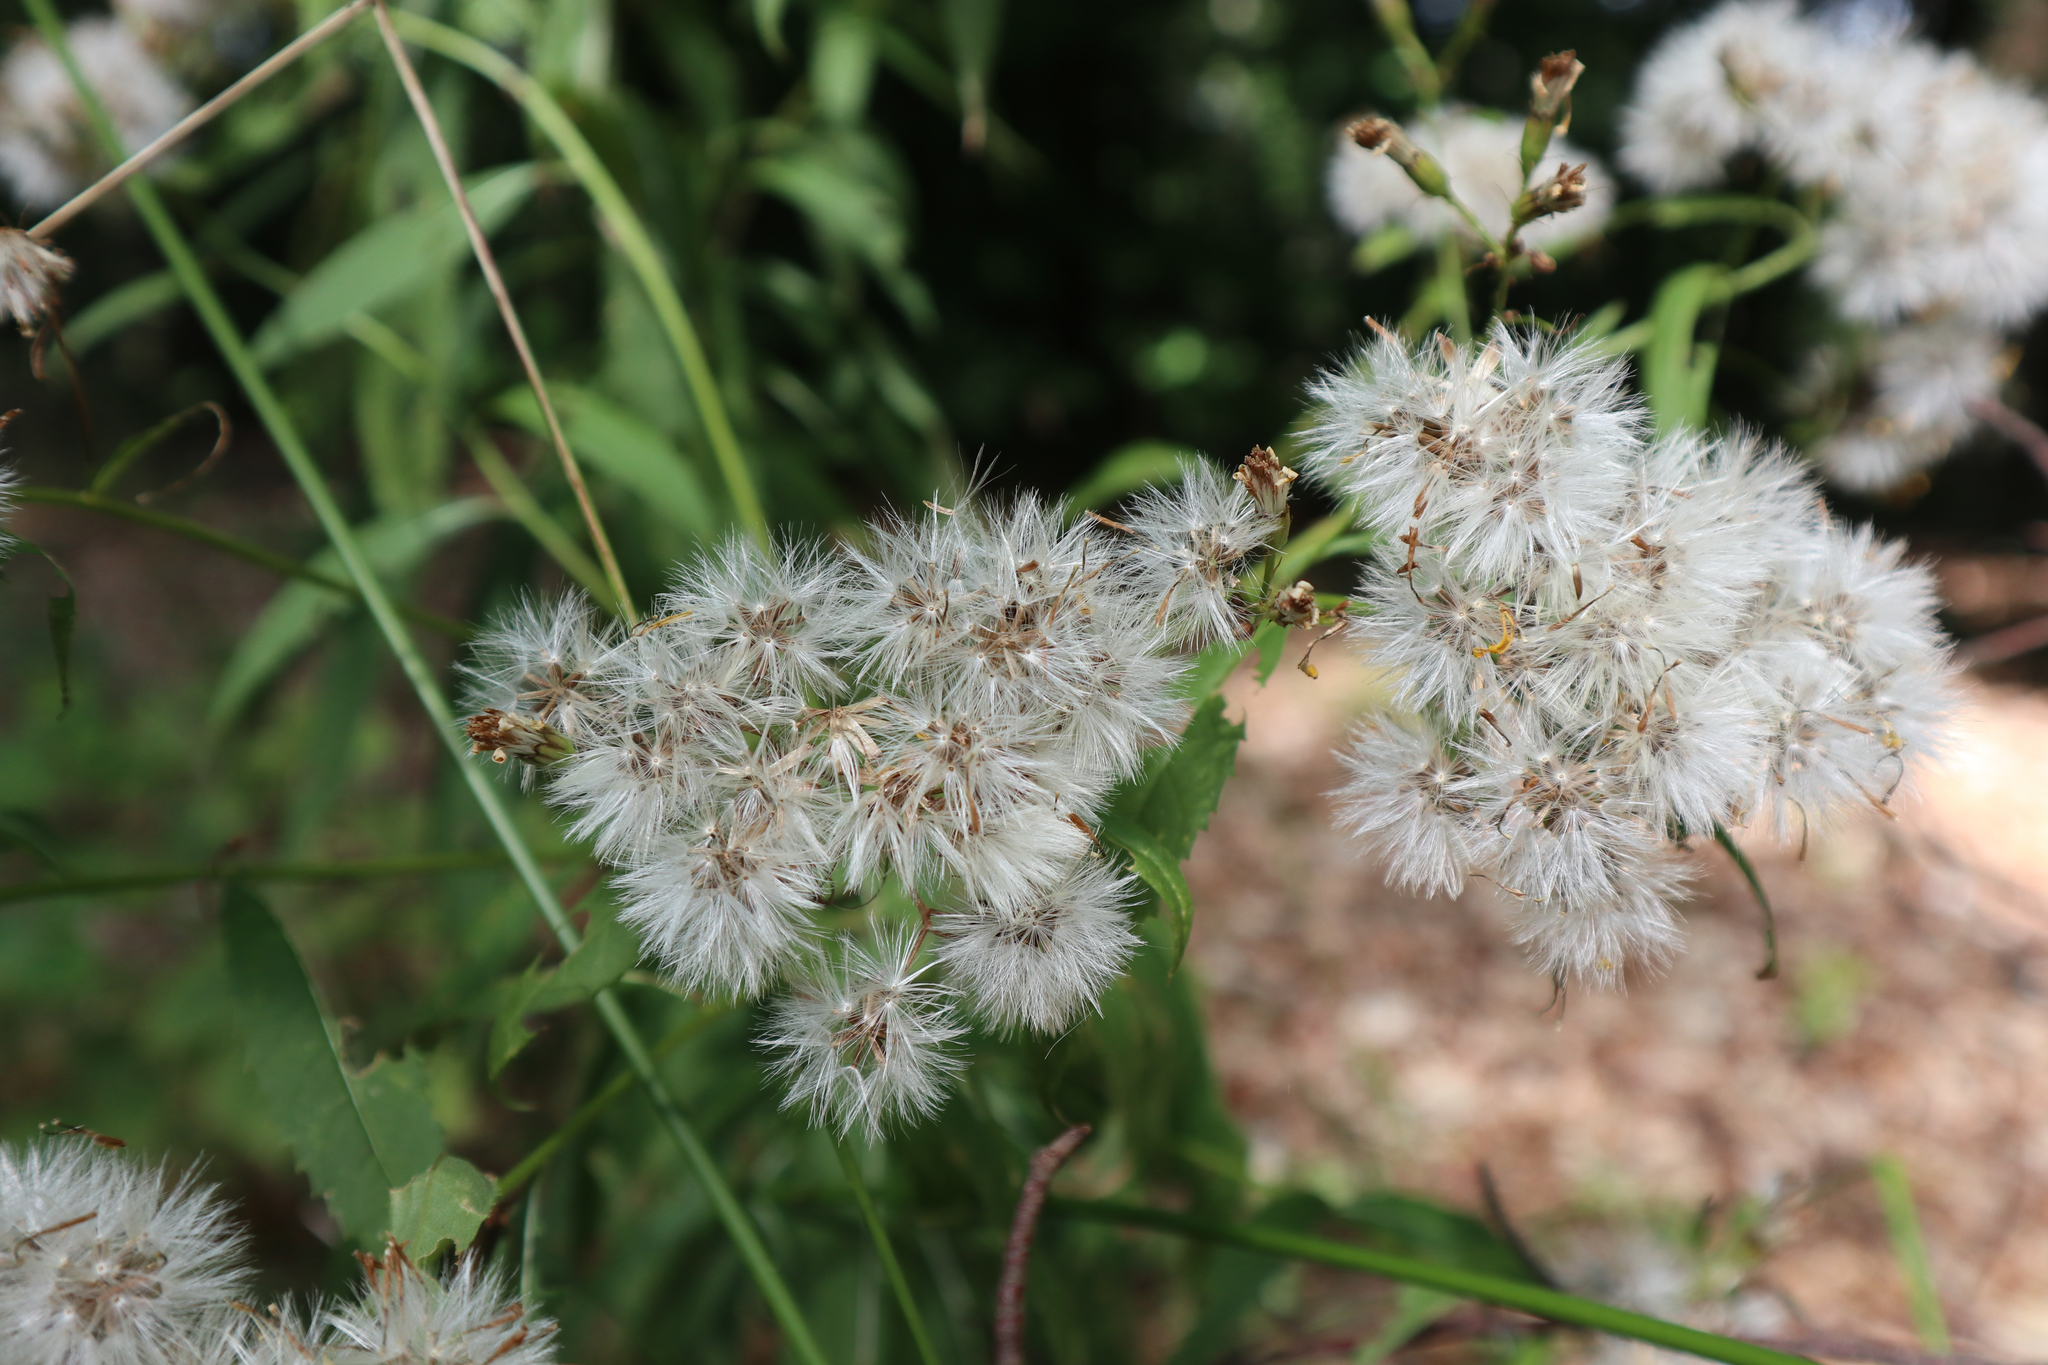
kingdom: Plantae
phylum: Tracheophyta
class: Magnoliopsida
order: Asterales
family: Asteraceae
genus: Eupatorium
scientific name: Eupatorium cannabinum
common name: Hemp-agrimony
